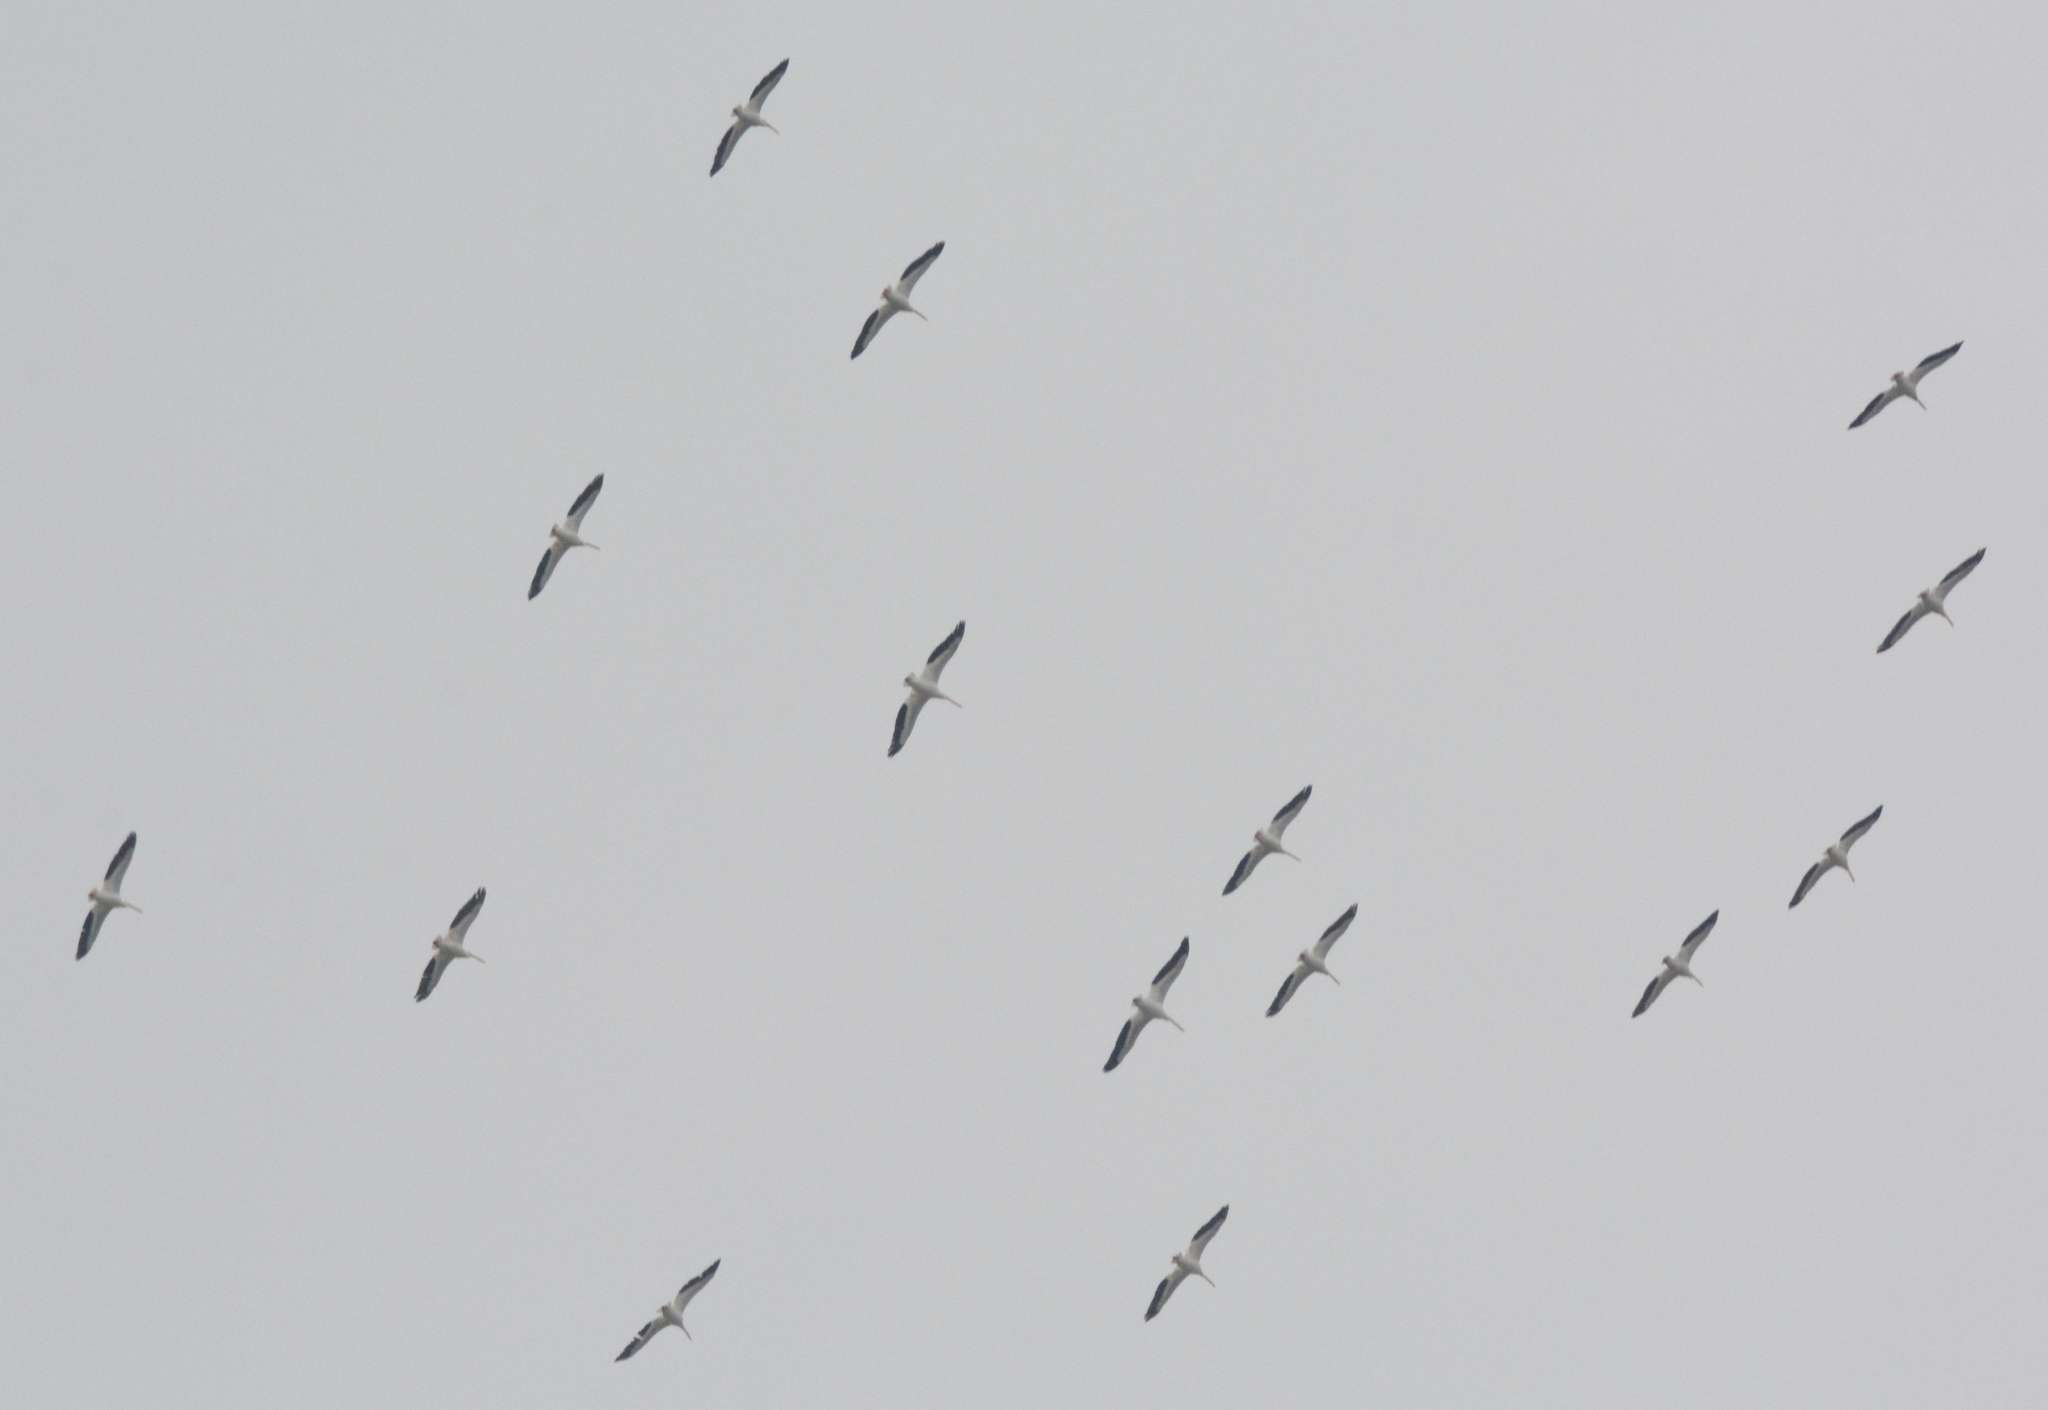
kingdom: Animalia
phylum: Chordata
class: Aves
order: Pelecaniformes
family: Pelecanidae
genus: Pelecanus
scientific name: Pelecanus erythrorhynchos
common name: American white pelican
